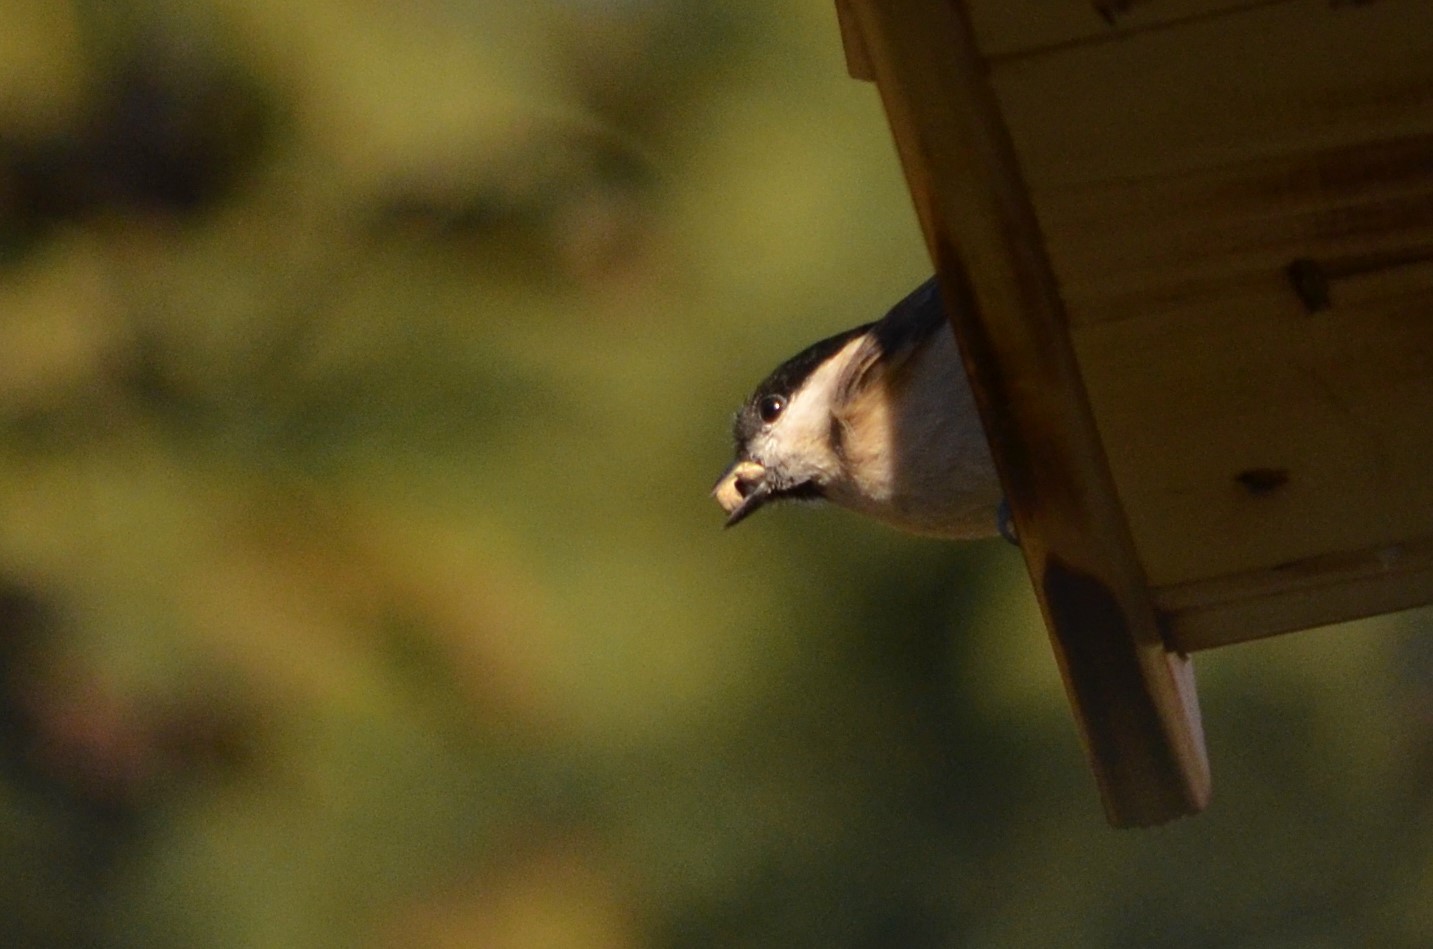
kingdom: Animalia
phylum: Chordata
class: Aves
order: Passeriformes
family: Paridae
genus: Poecile
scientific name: Poecile palustris
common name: Marsh tit
